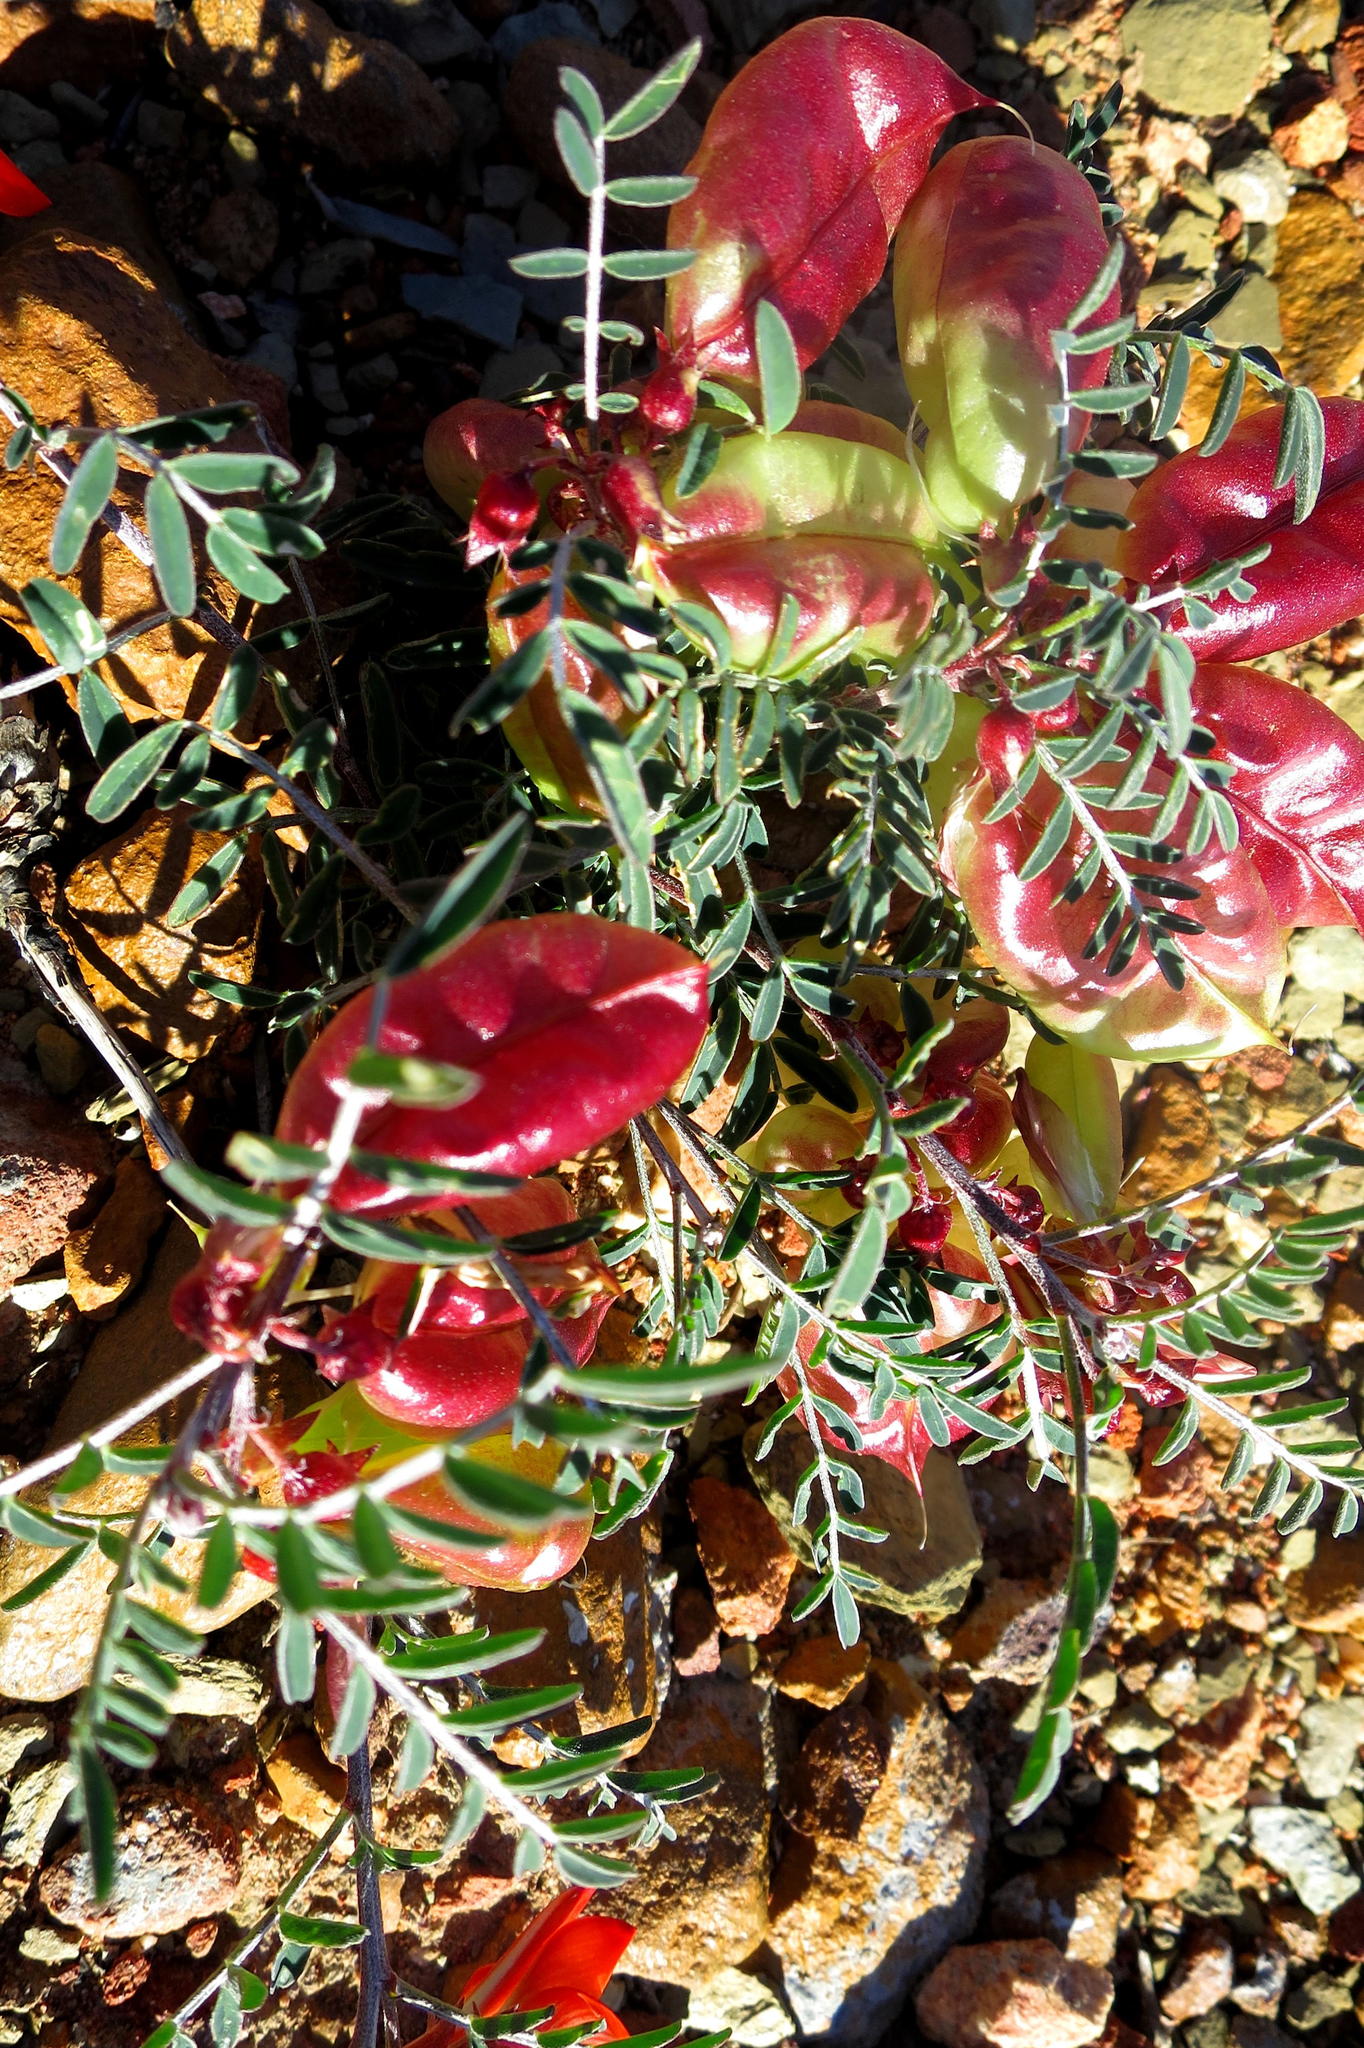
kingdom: Plantae
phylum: Tracheophyta
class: Magnoliopsida
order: Fabales
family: Fabaceae
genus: Lessertia
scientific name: Lessertia frutescens
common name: Balloon-pea
